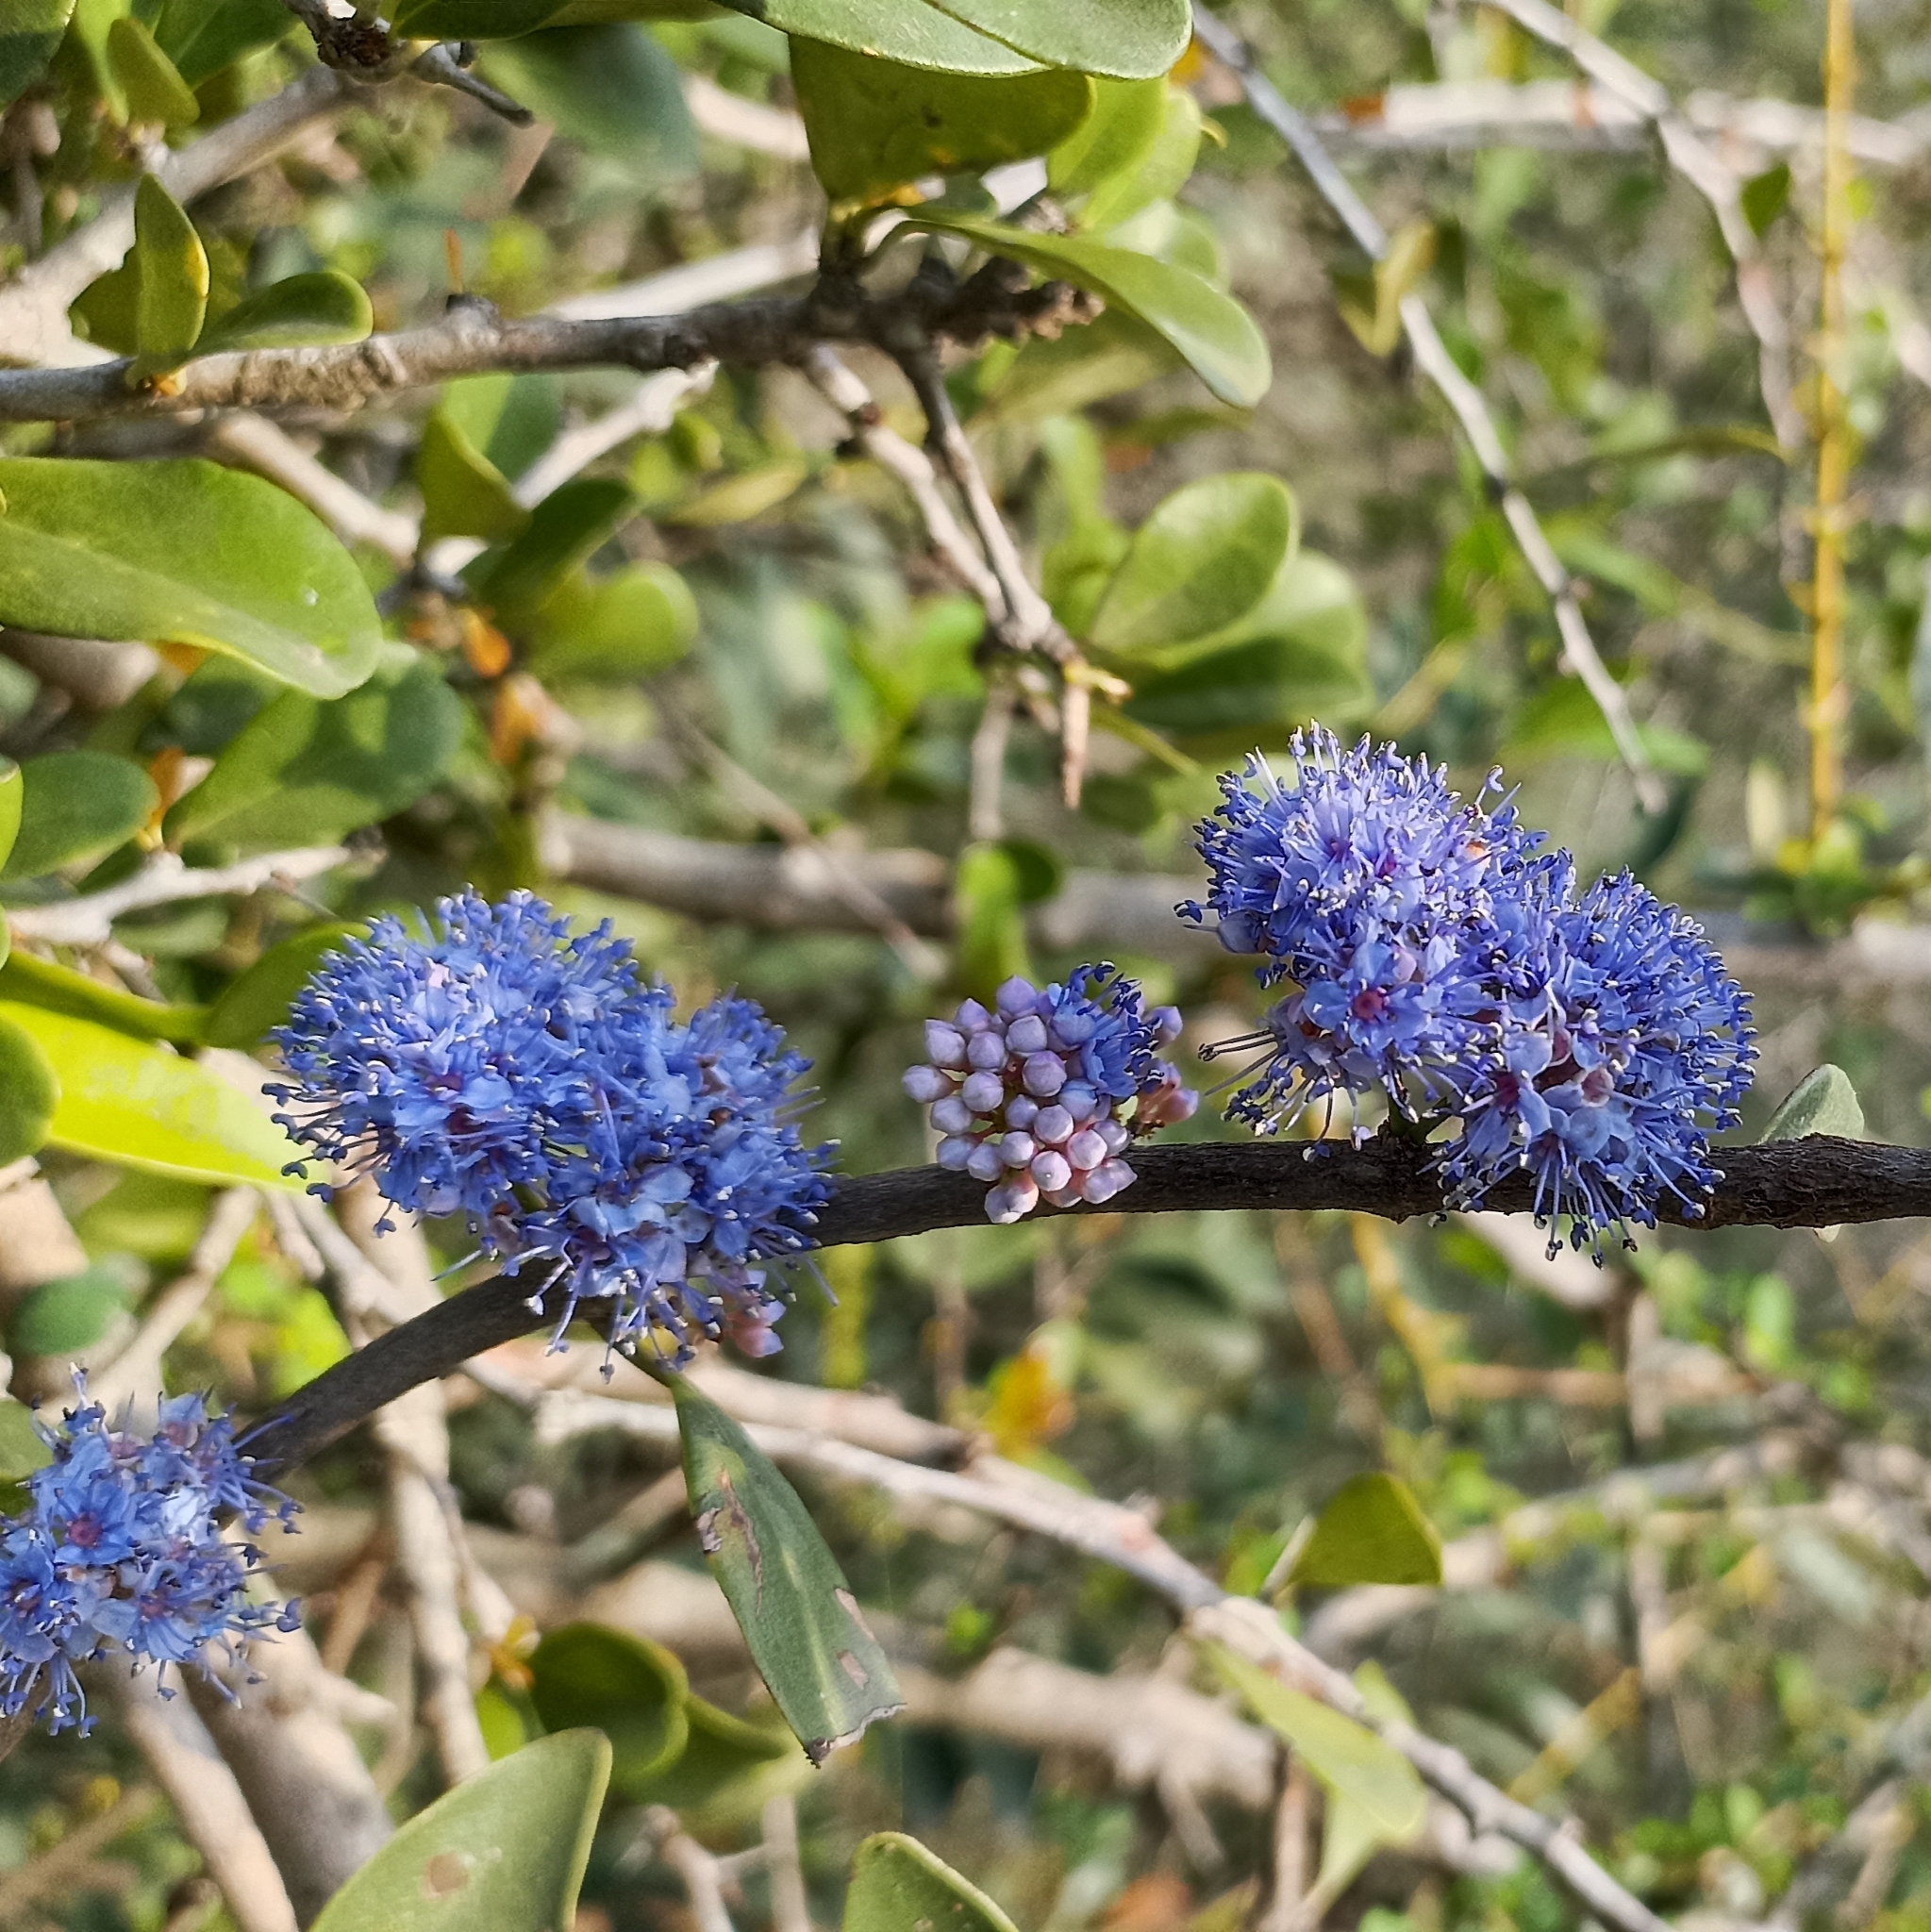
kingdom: Plantae
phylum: Tracheophyta
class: Magnoliopsida
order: Myrtales
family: Melastomataceae
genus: Memecylon
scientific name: Memecylon umbellatum
